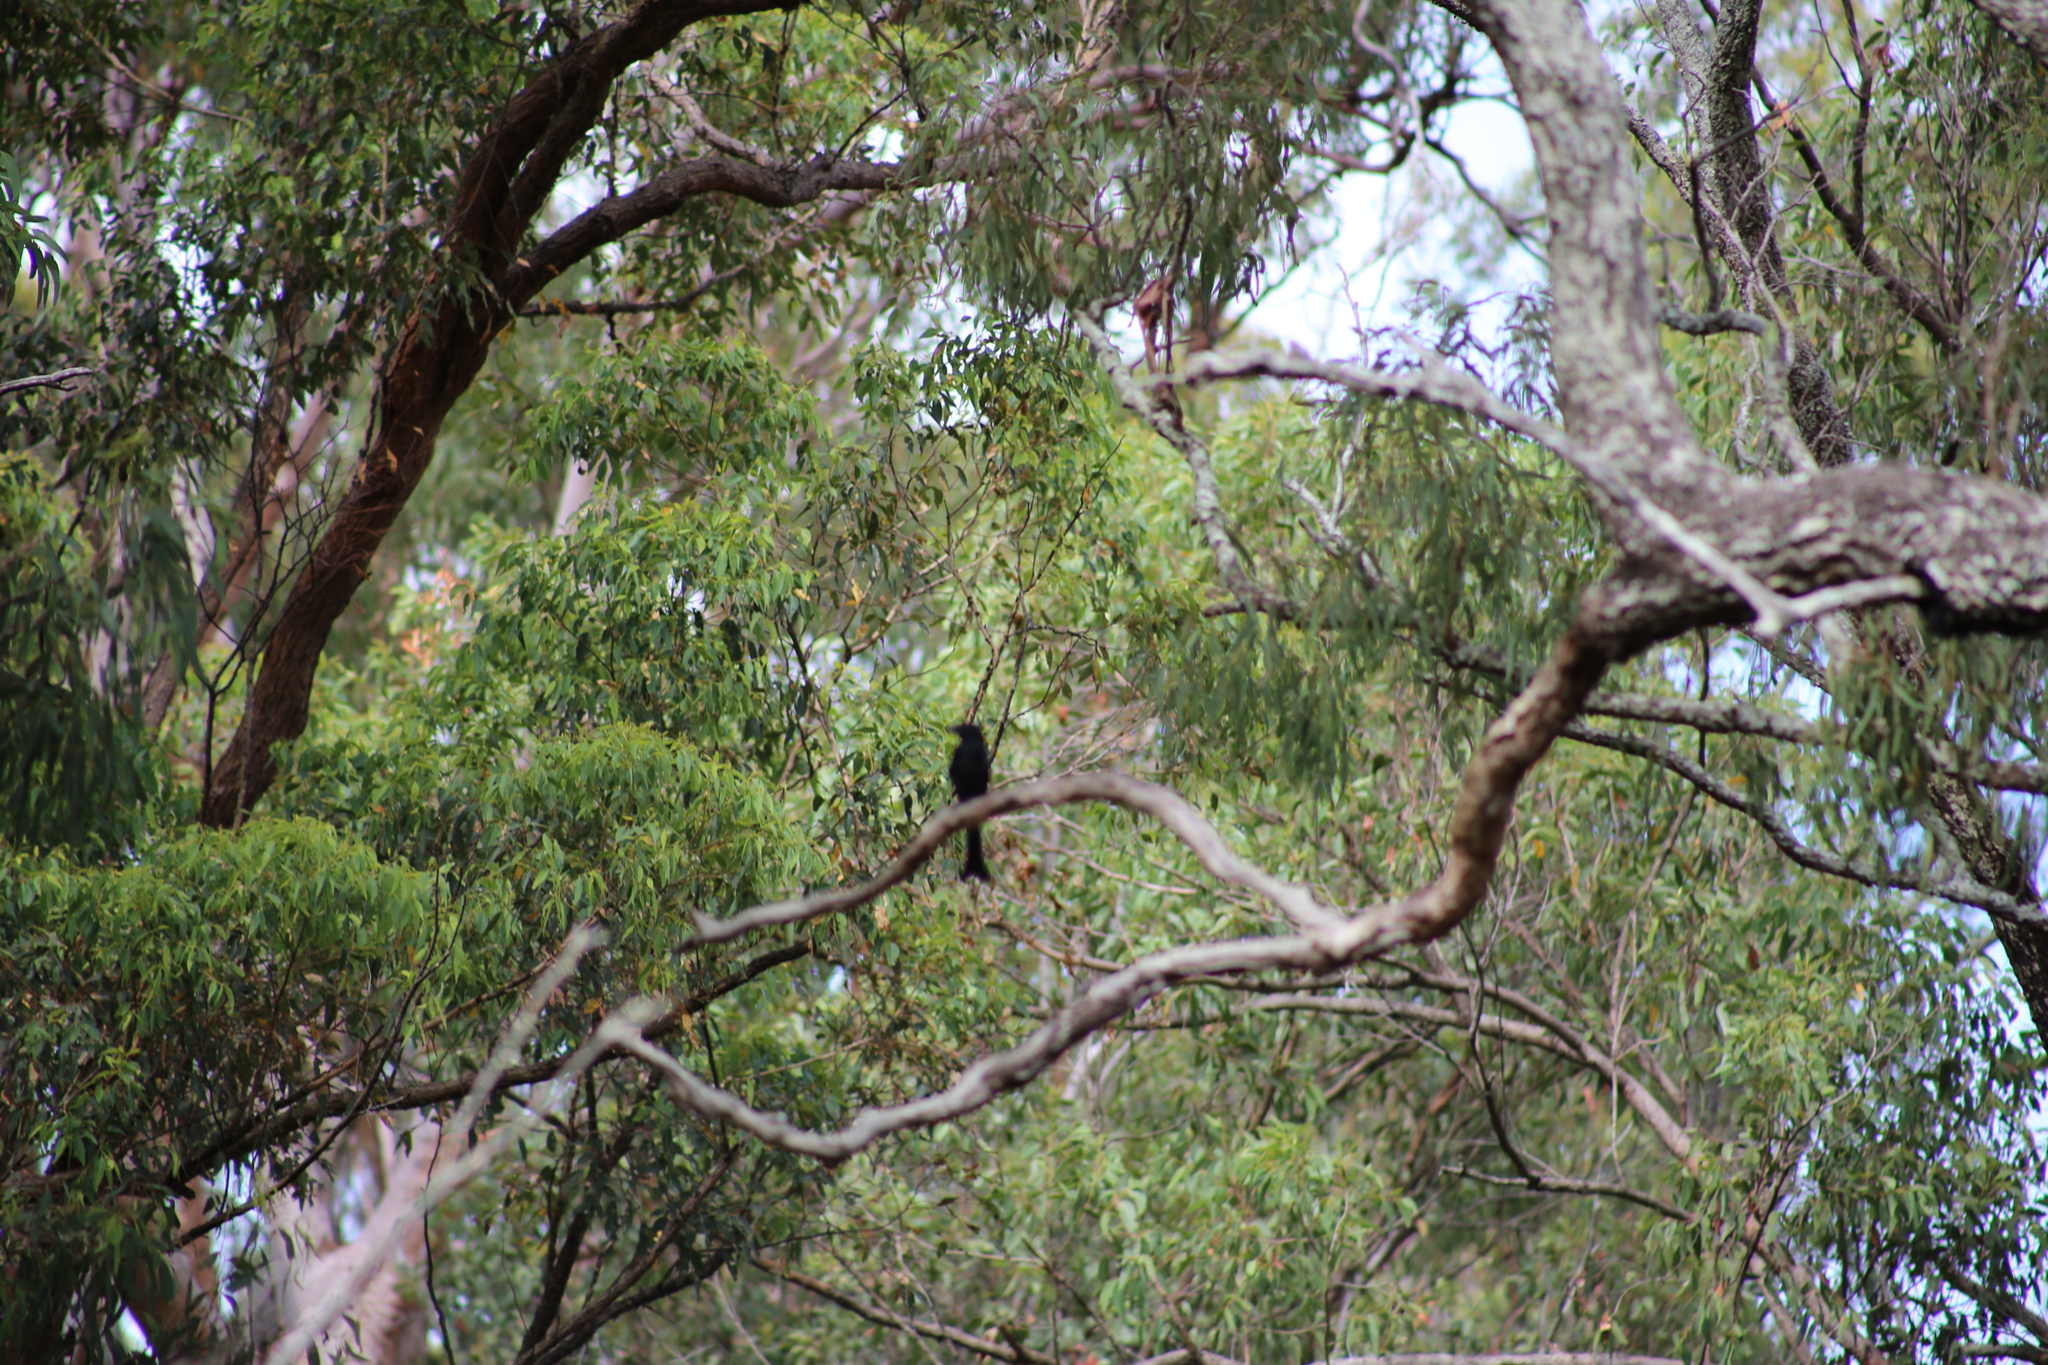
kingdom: Animalia
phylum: Chordata
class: Aves
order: Passeriformes
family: Dicruridae
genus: Dicrurus
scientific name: Dicrurus bracteatus
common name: Spangled drongo
